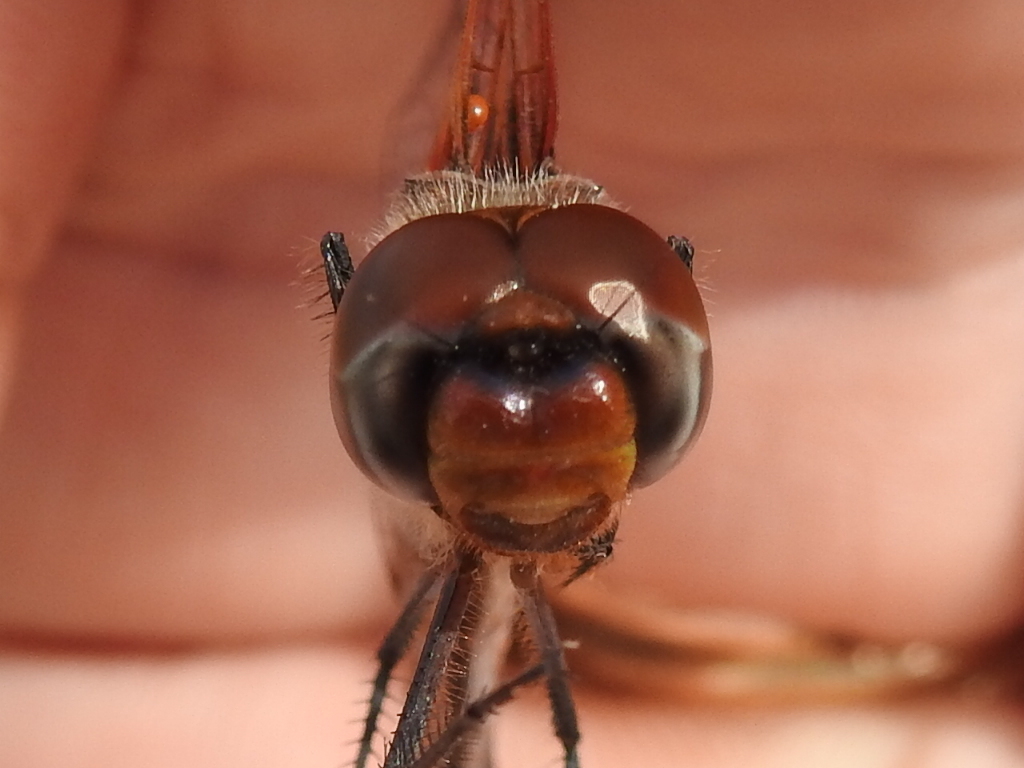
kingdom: Animalia
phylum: Arthropoda
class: Insecta
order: Odonata
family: Libellulidae
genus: Tramea
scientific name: Tramea onusta
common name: Red saddlebags
